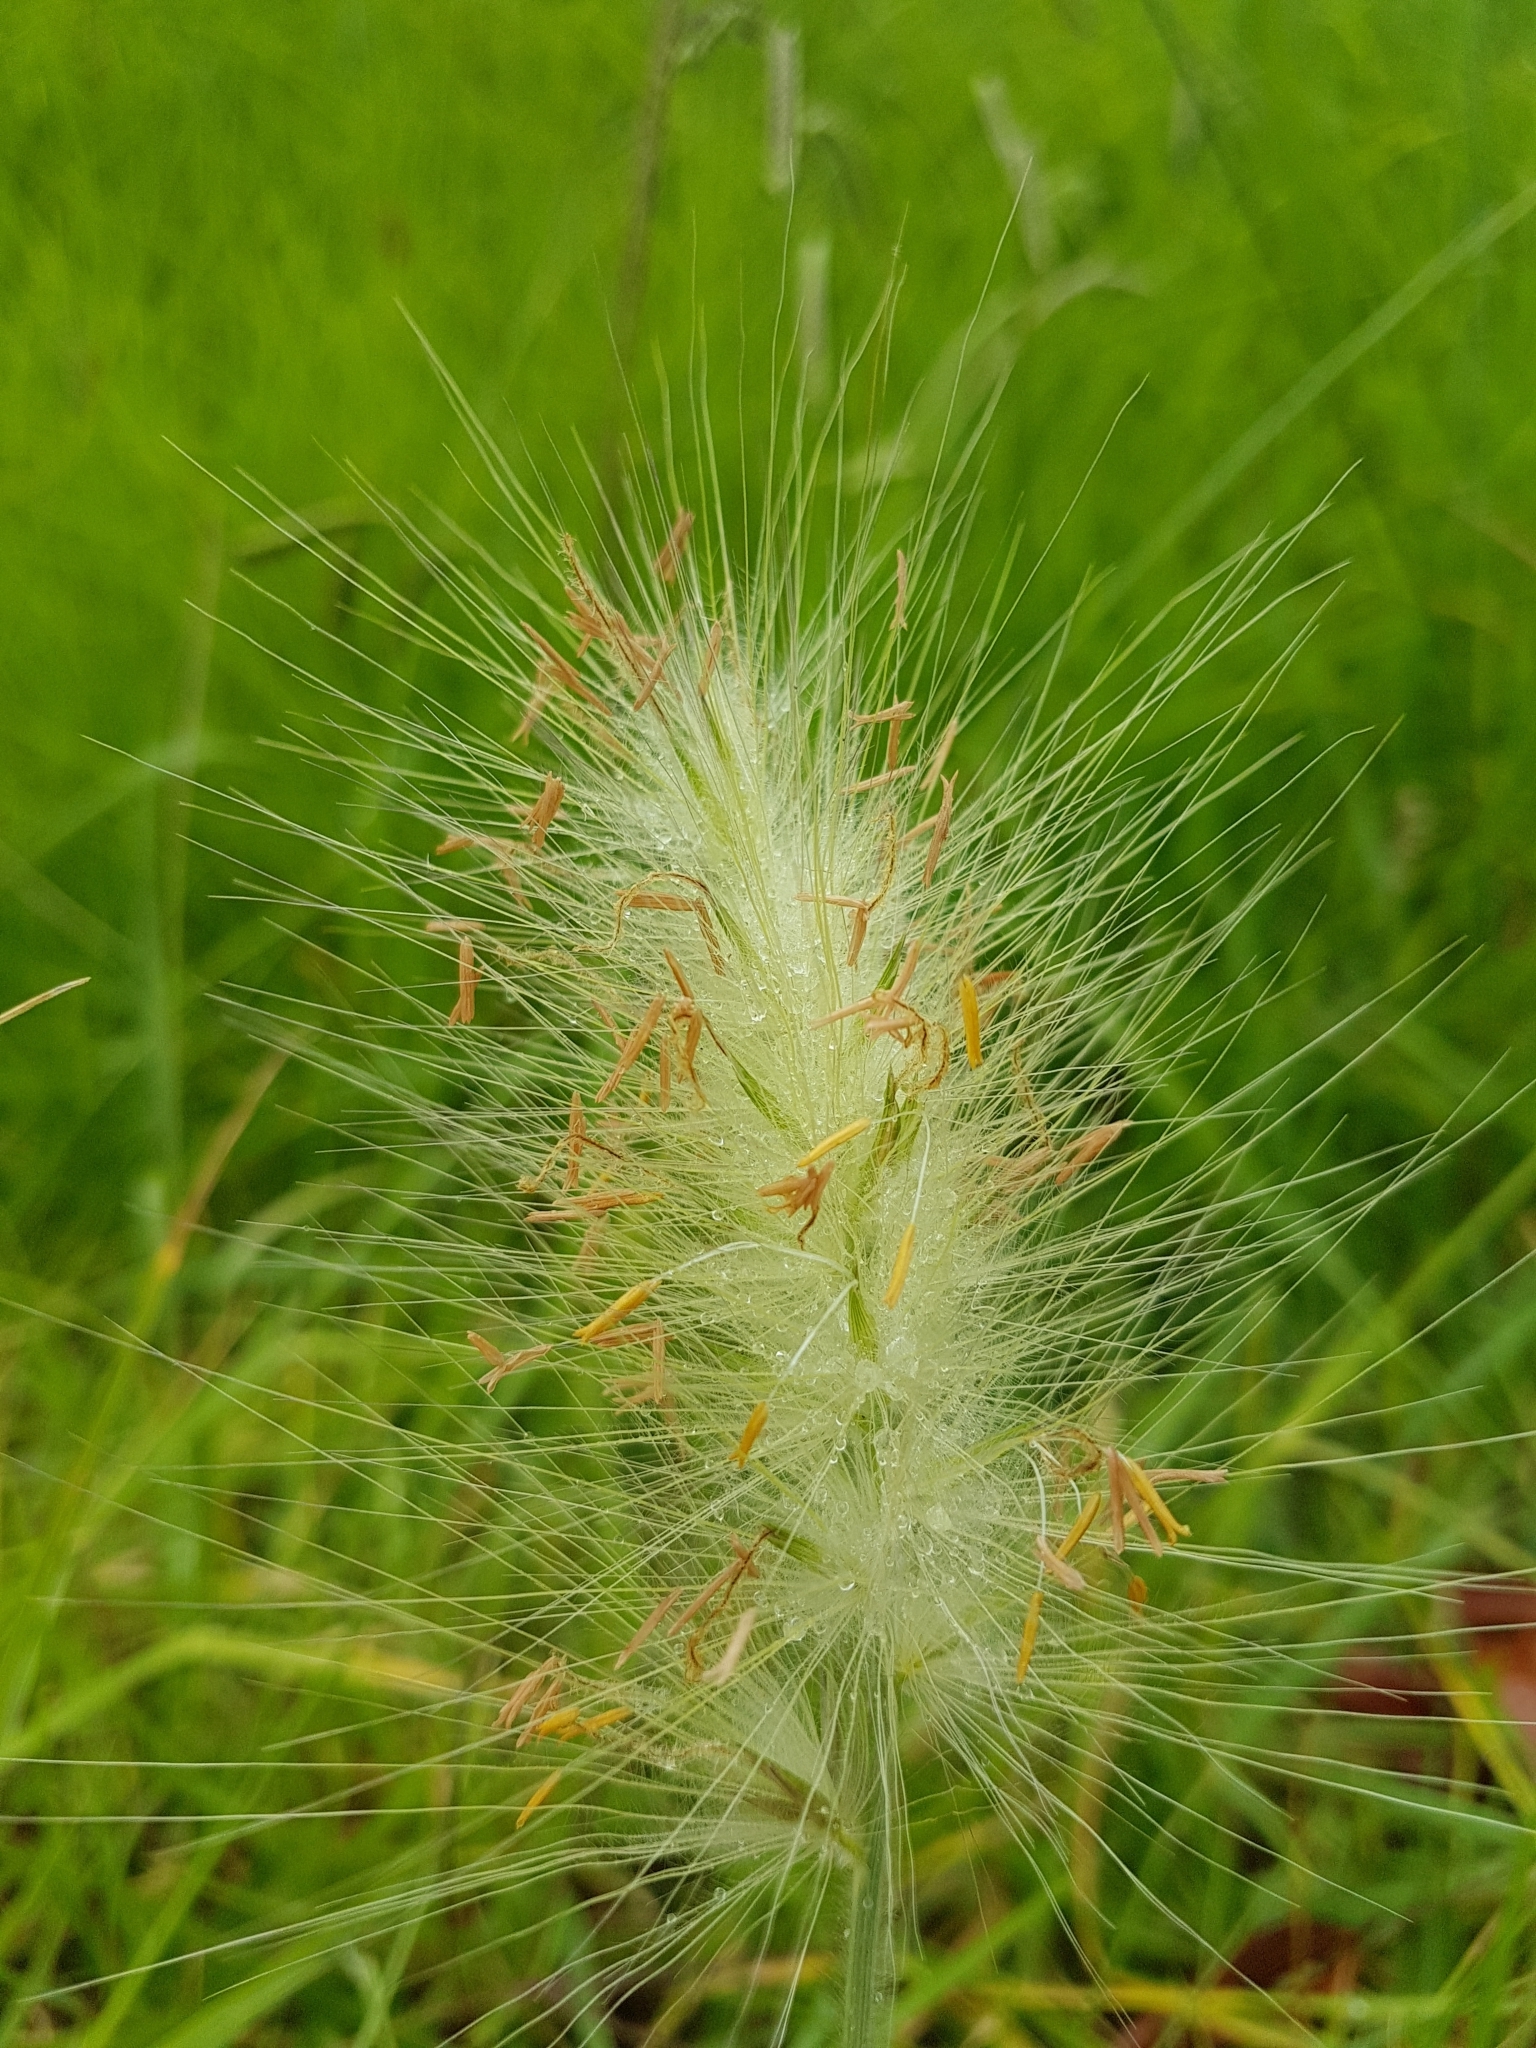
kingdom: Plantae
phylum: Tracheophyta
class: Liliopsida
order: Poales
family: Poaceae
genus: Cenchrus
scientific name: Cenchrus longisetus
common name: Feathertop
